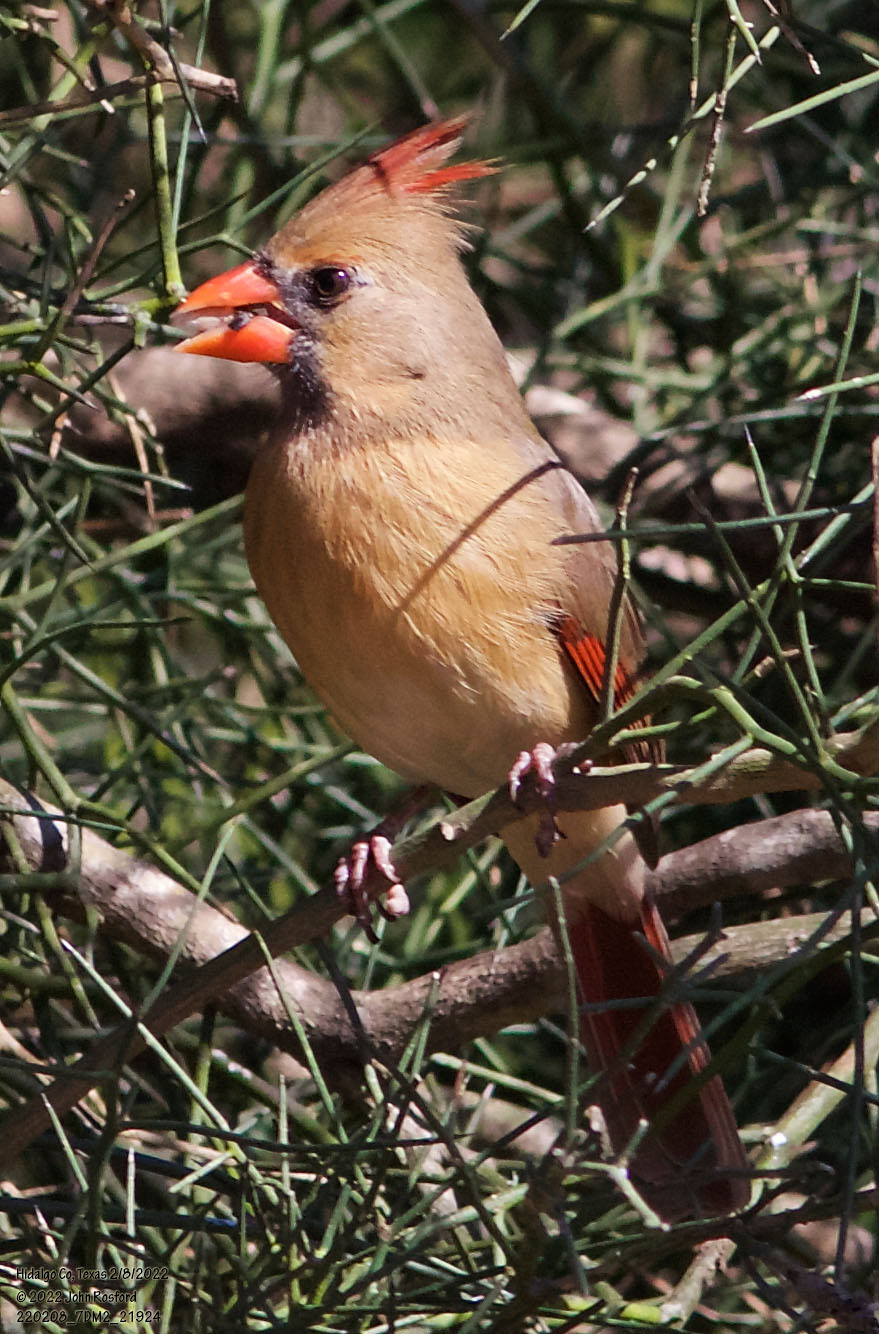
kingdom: Animalia
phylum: Chordata
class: Aves
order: Passeriformes
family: Cardinalidae
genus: Cardinalis
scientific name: Cardinalis cardinalis
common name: Northern cardinal
